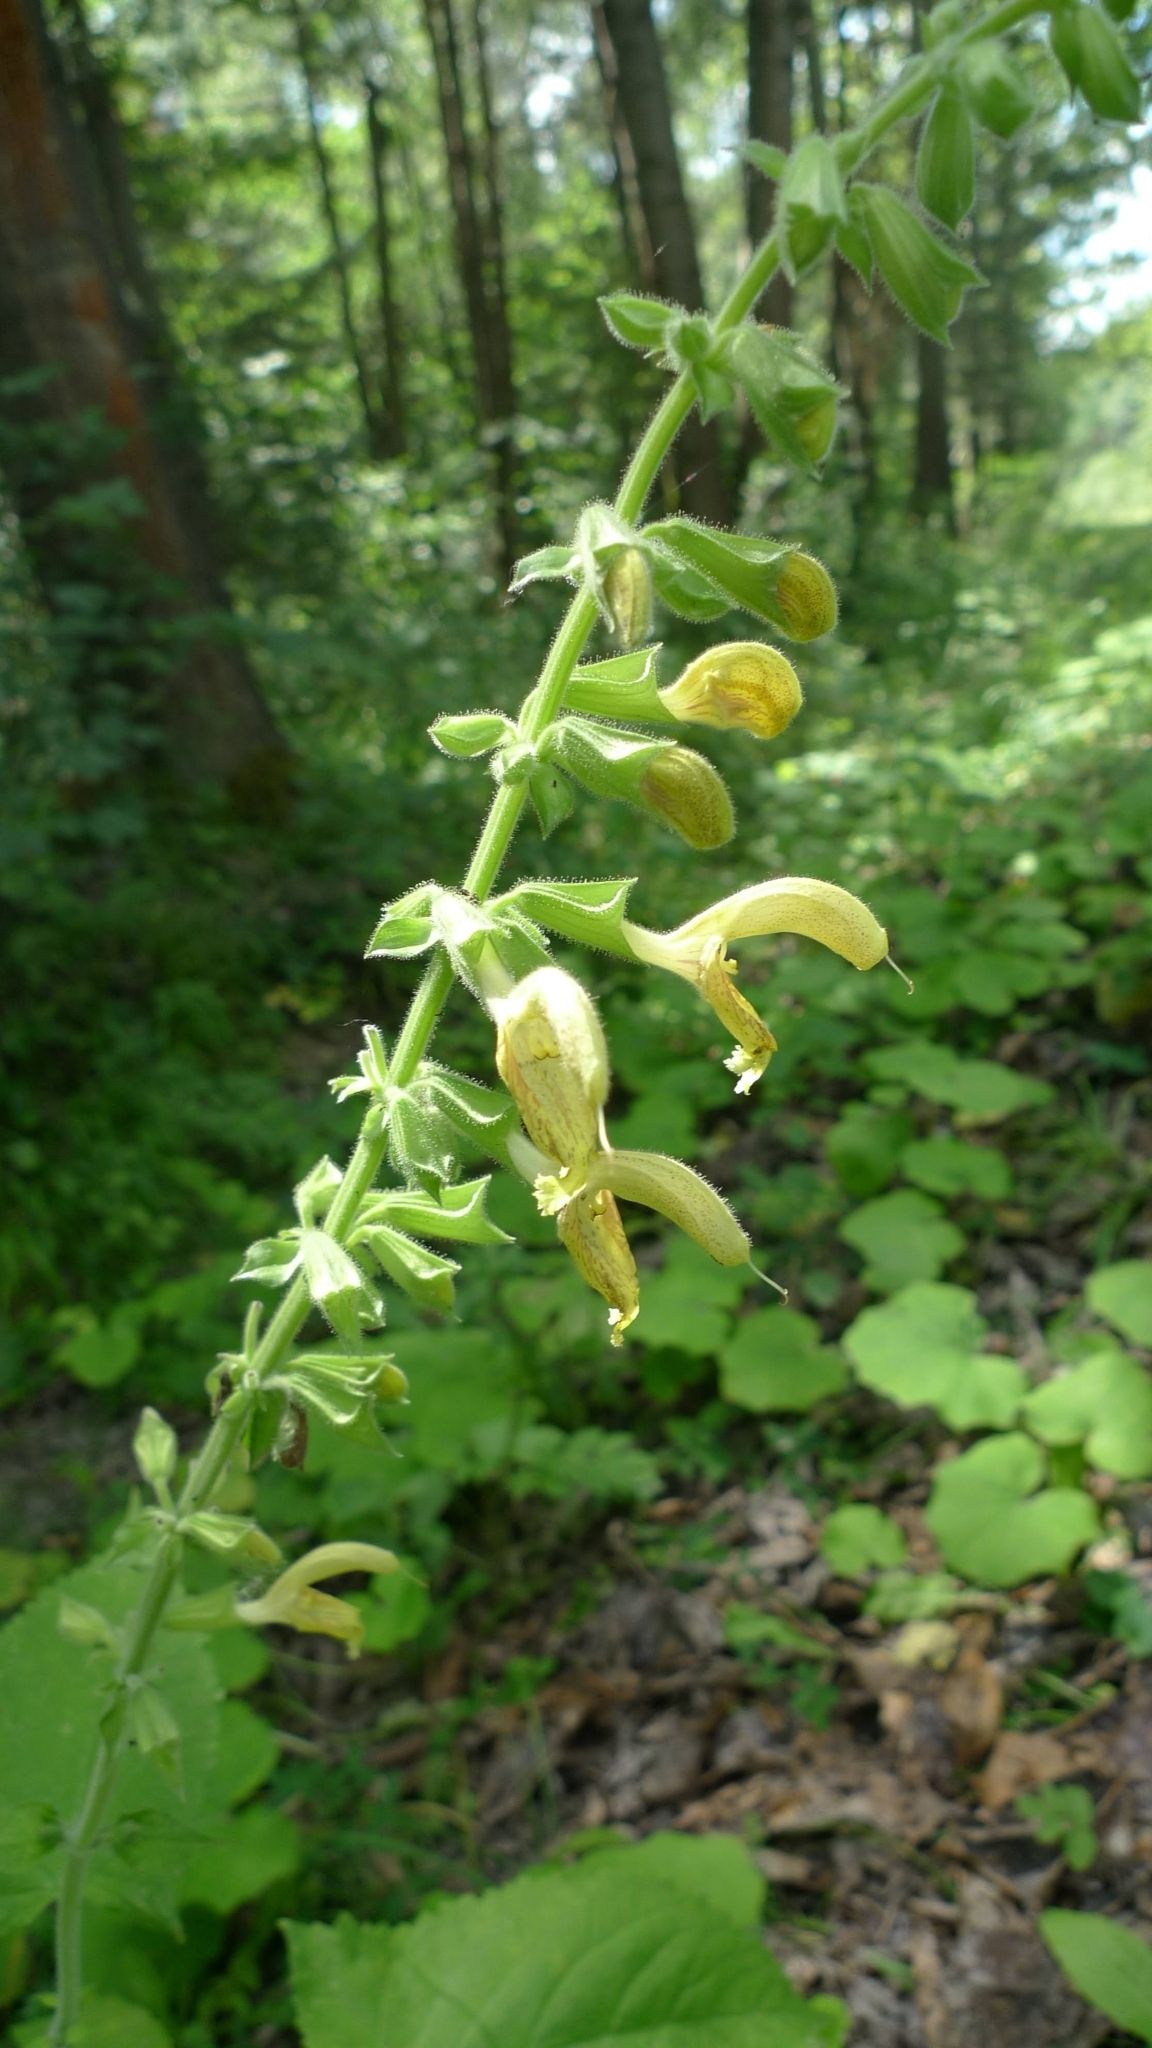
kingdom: Plantae
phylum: Tracheophyta
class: Magnoliopsida
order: Lamiales
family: Lamiaceae
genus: Salvia
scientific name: Salvia glutinosa
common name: Sticky clary
